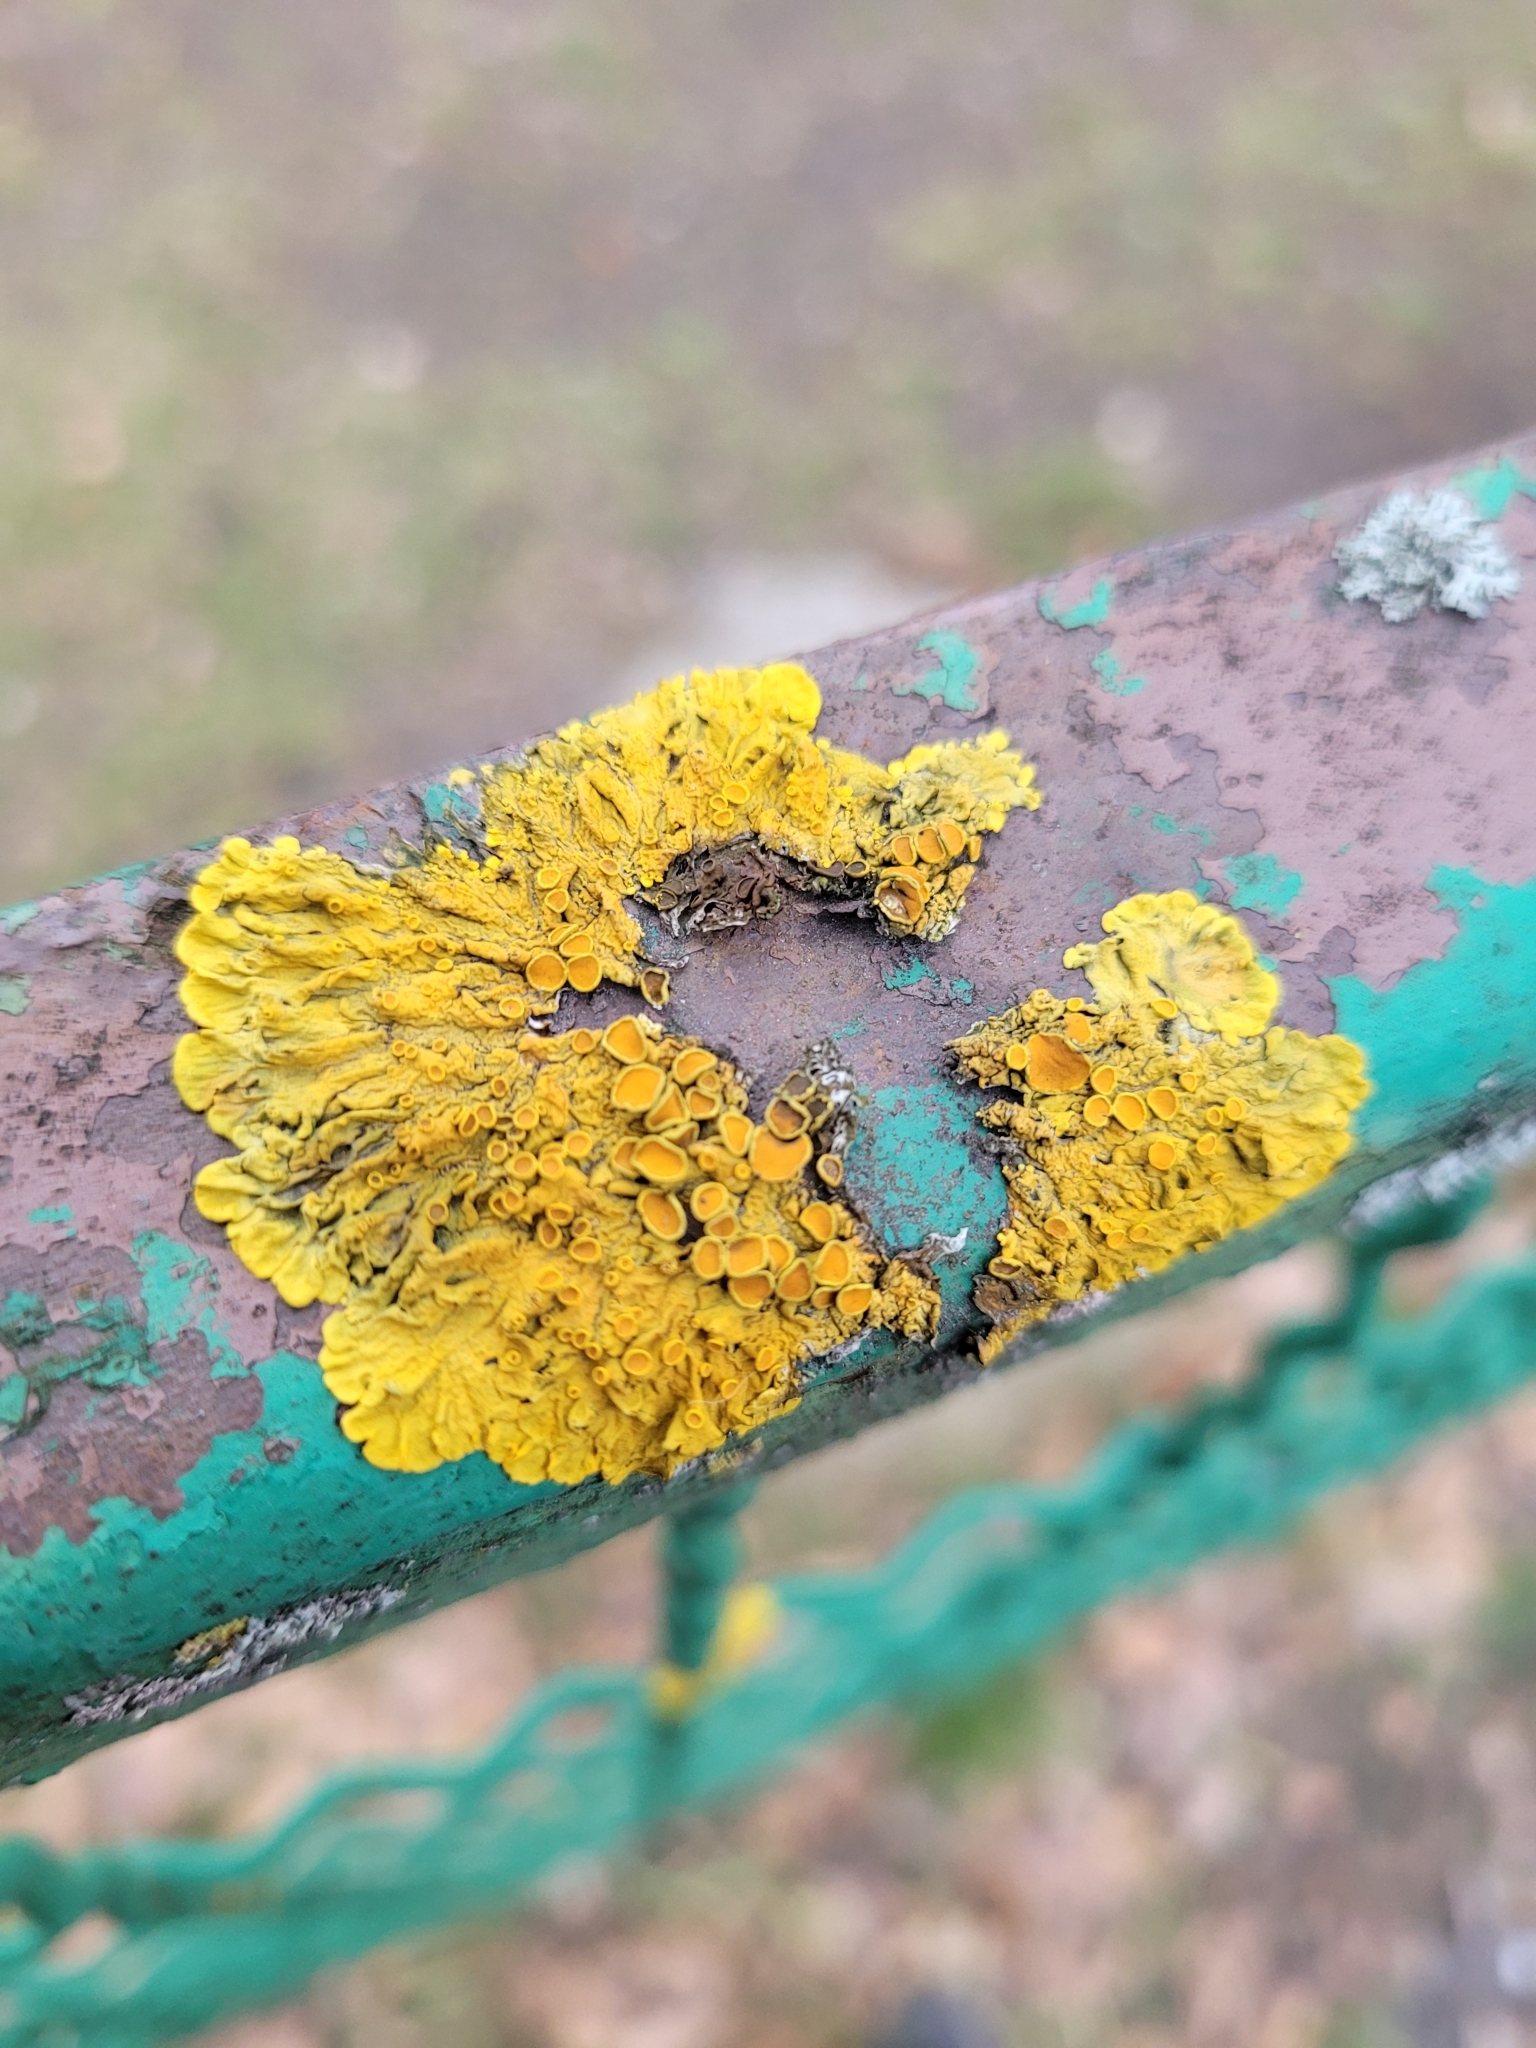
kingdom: Fungi
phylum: Ascomycota
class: Lecanoromycetes
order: Teloschistales
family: Teloschistaceae
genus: Xanthoria
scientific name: Xanthoria parietina
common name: Common orange lichen
